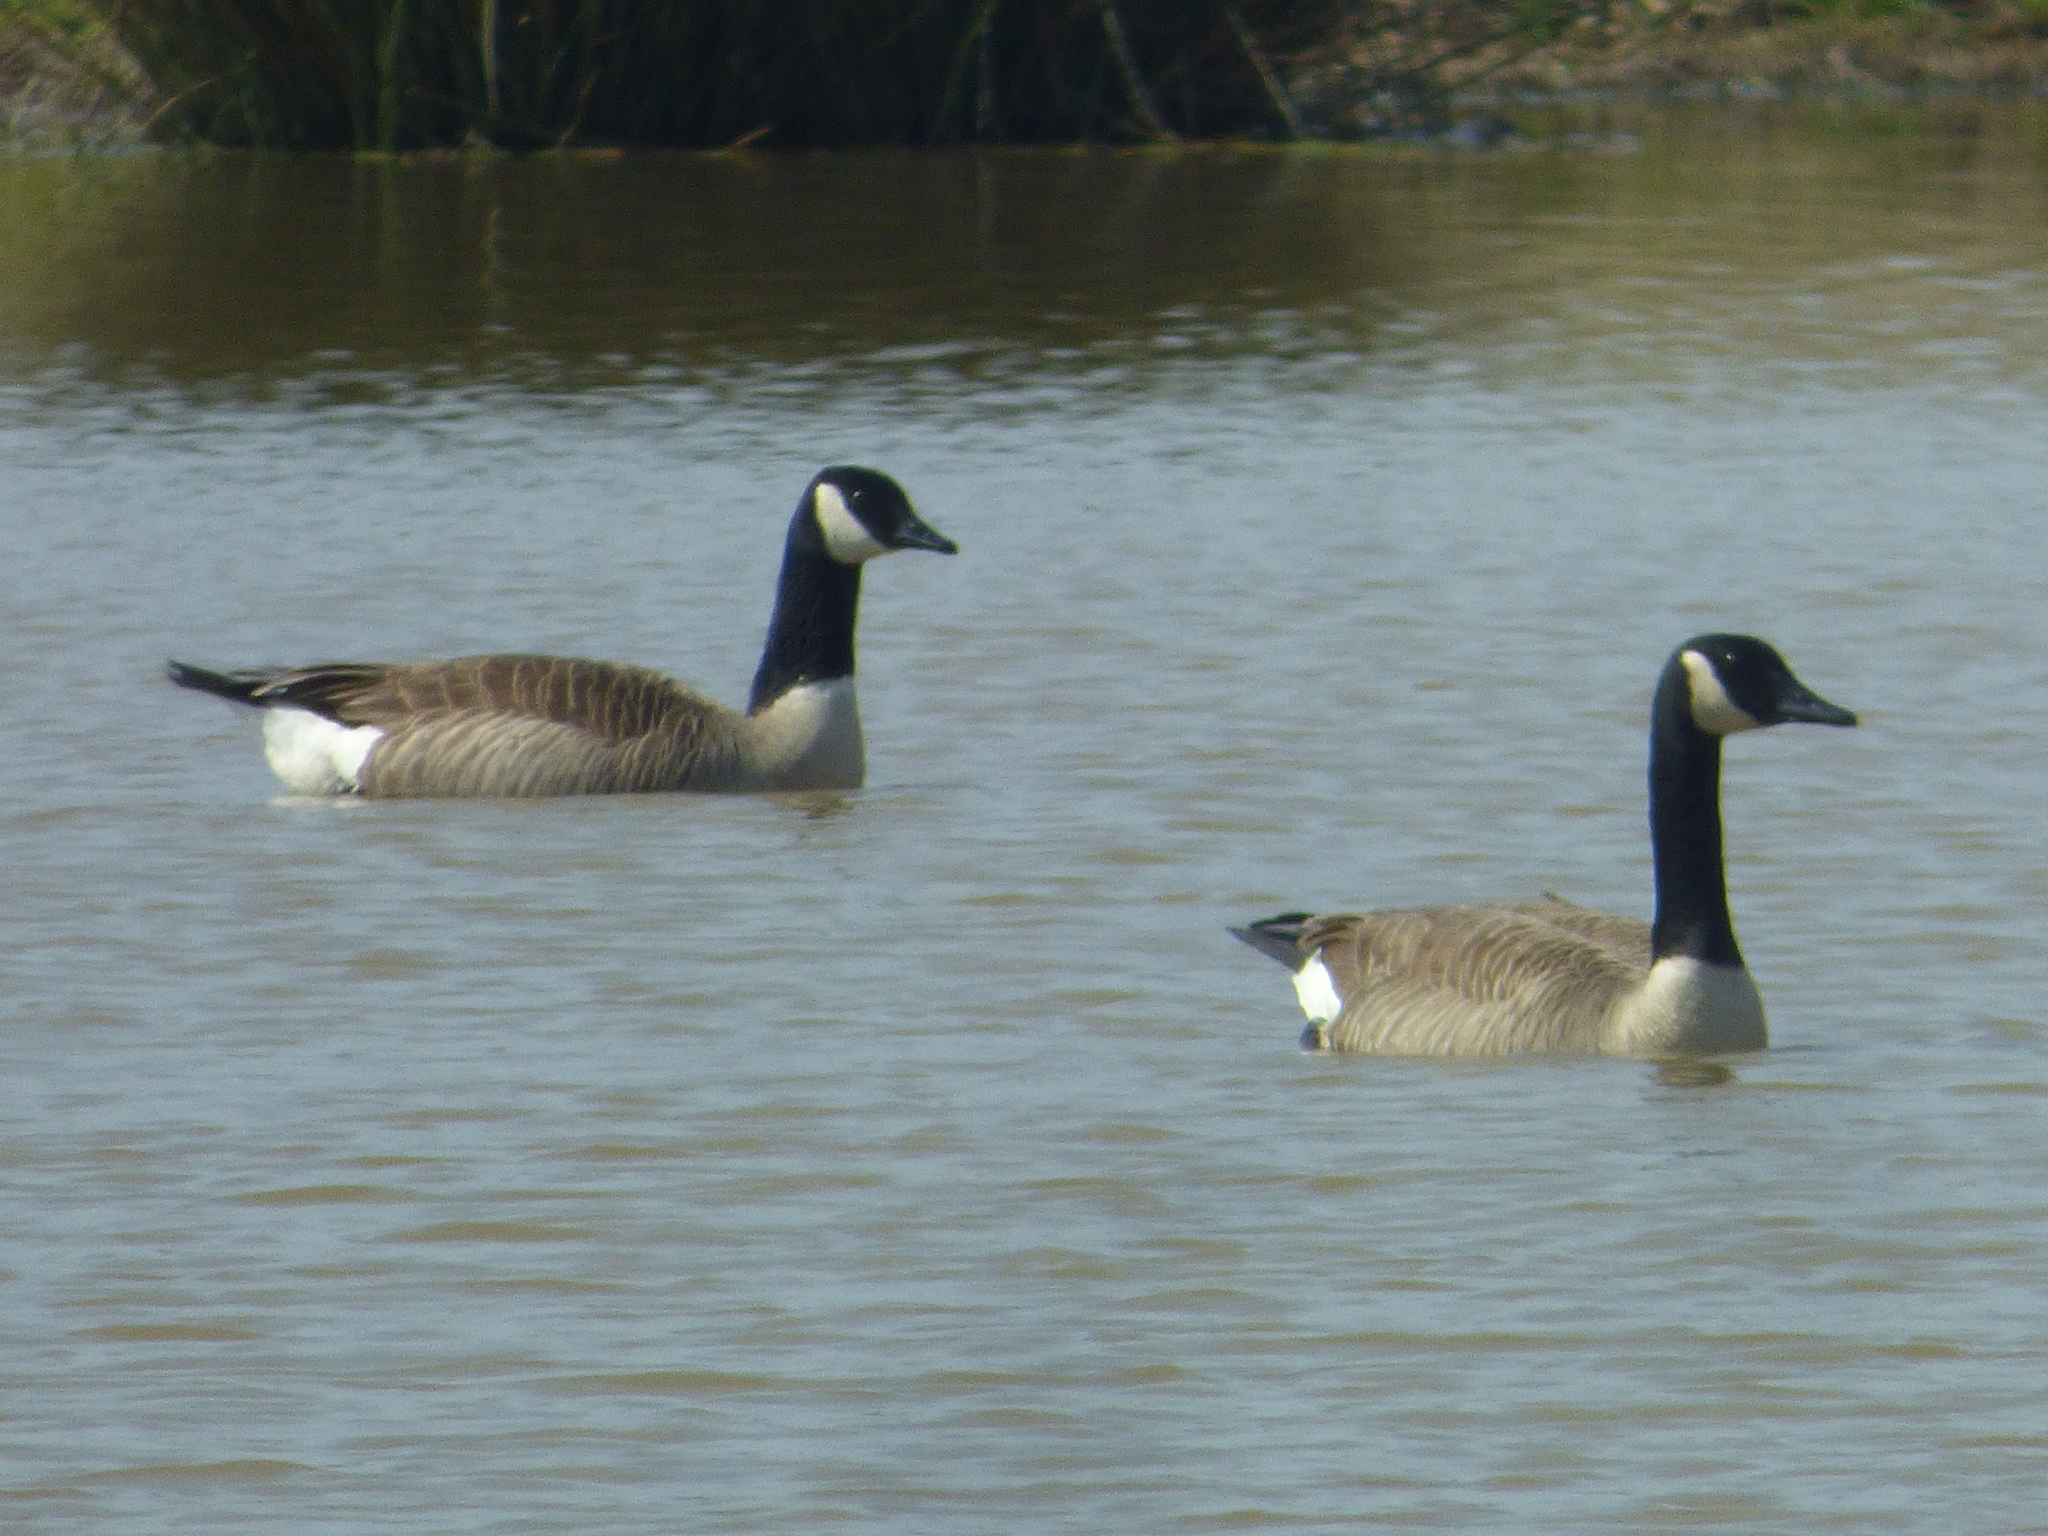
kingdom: Animalia
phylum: Chordata
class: Aves
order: Anseriformes
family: Anatidae
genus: Branta
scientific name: Branta canadensis
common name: Canada goose
